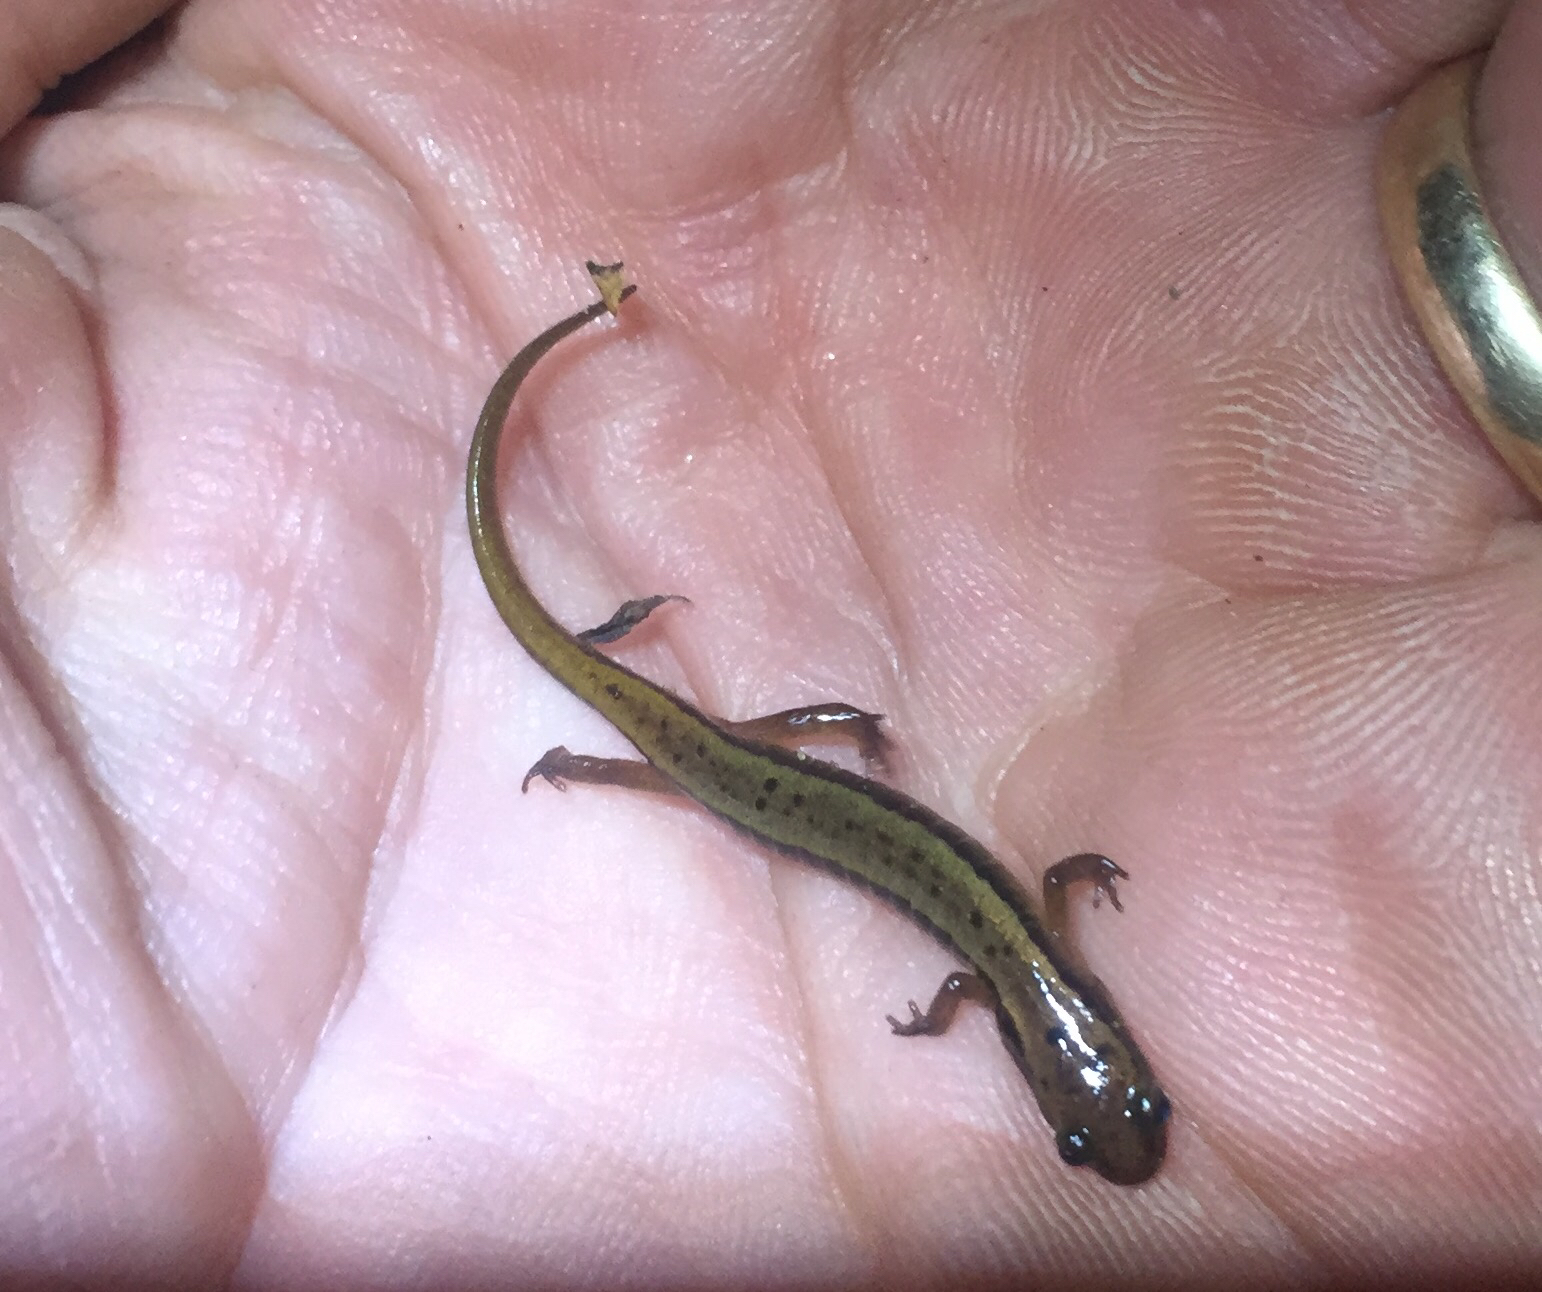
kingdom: Animalia
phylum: Chordata
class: Amphibia
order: Caudata
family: Plethodontidae
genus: Eurycea
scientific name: Eurycea wilderae
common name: Blue ridge two-lined salamander
